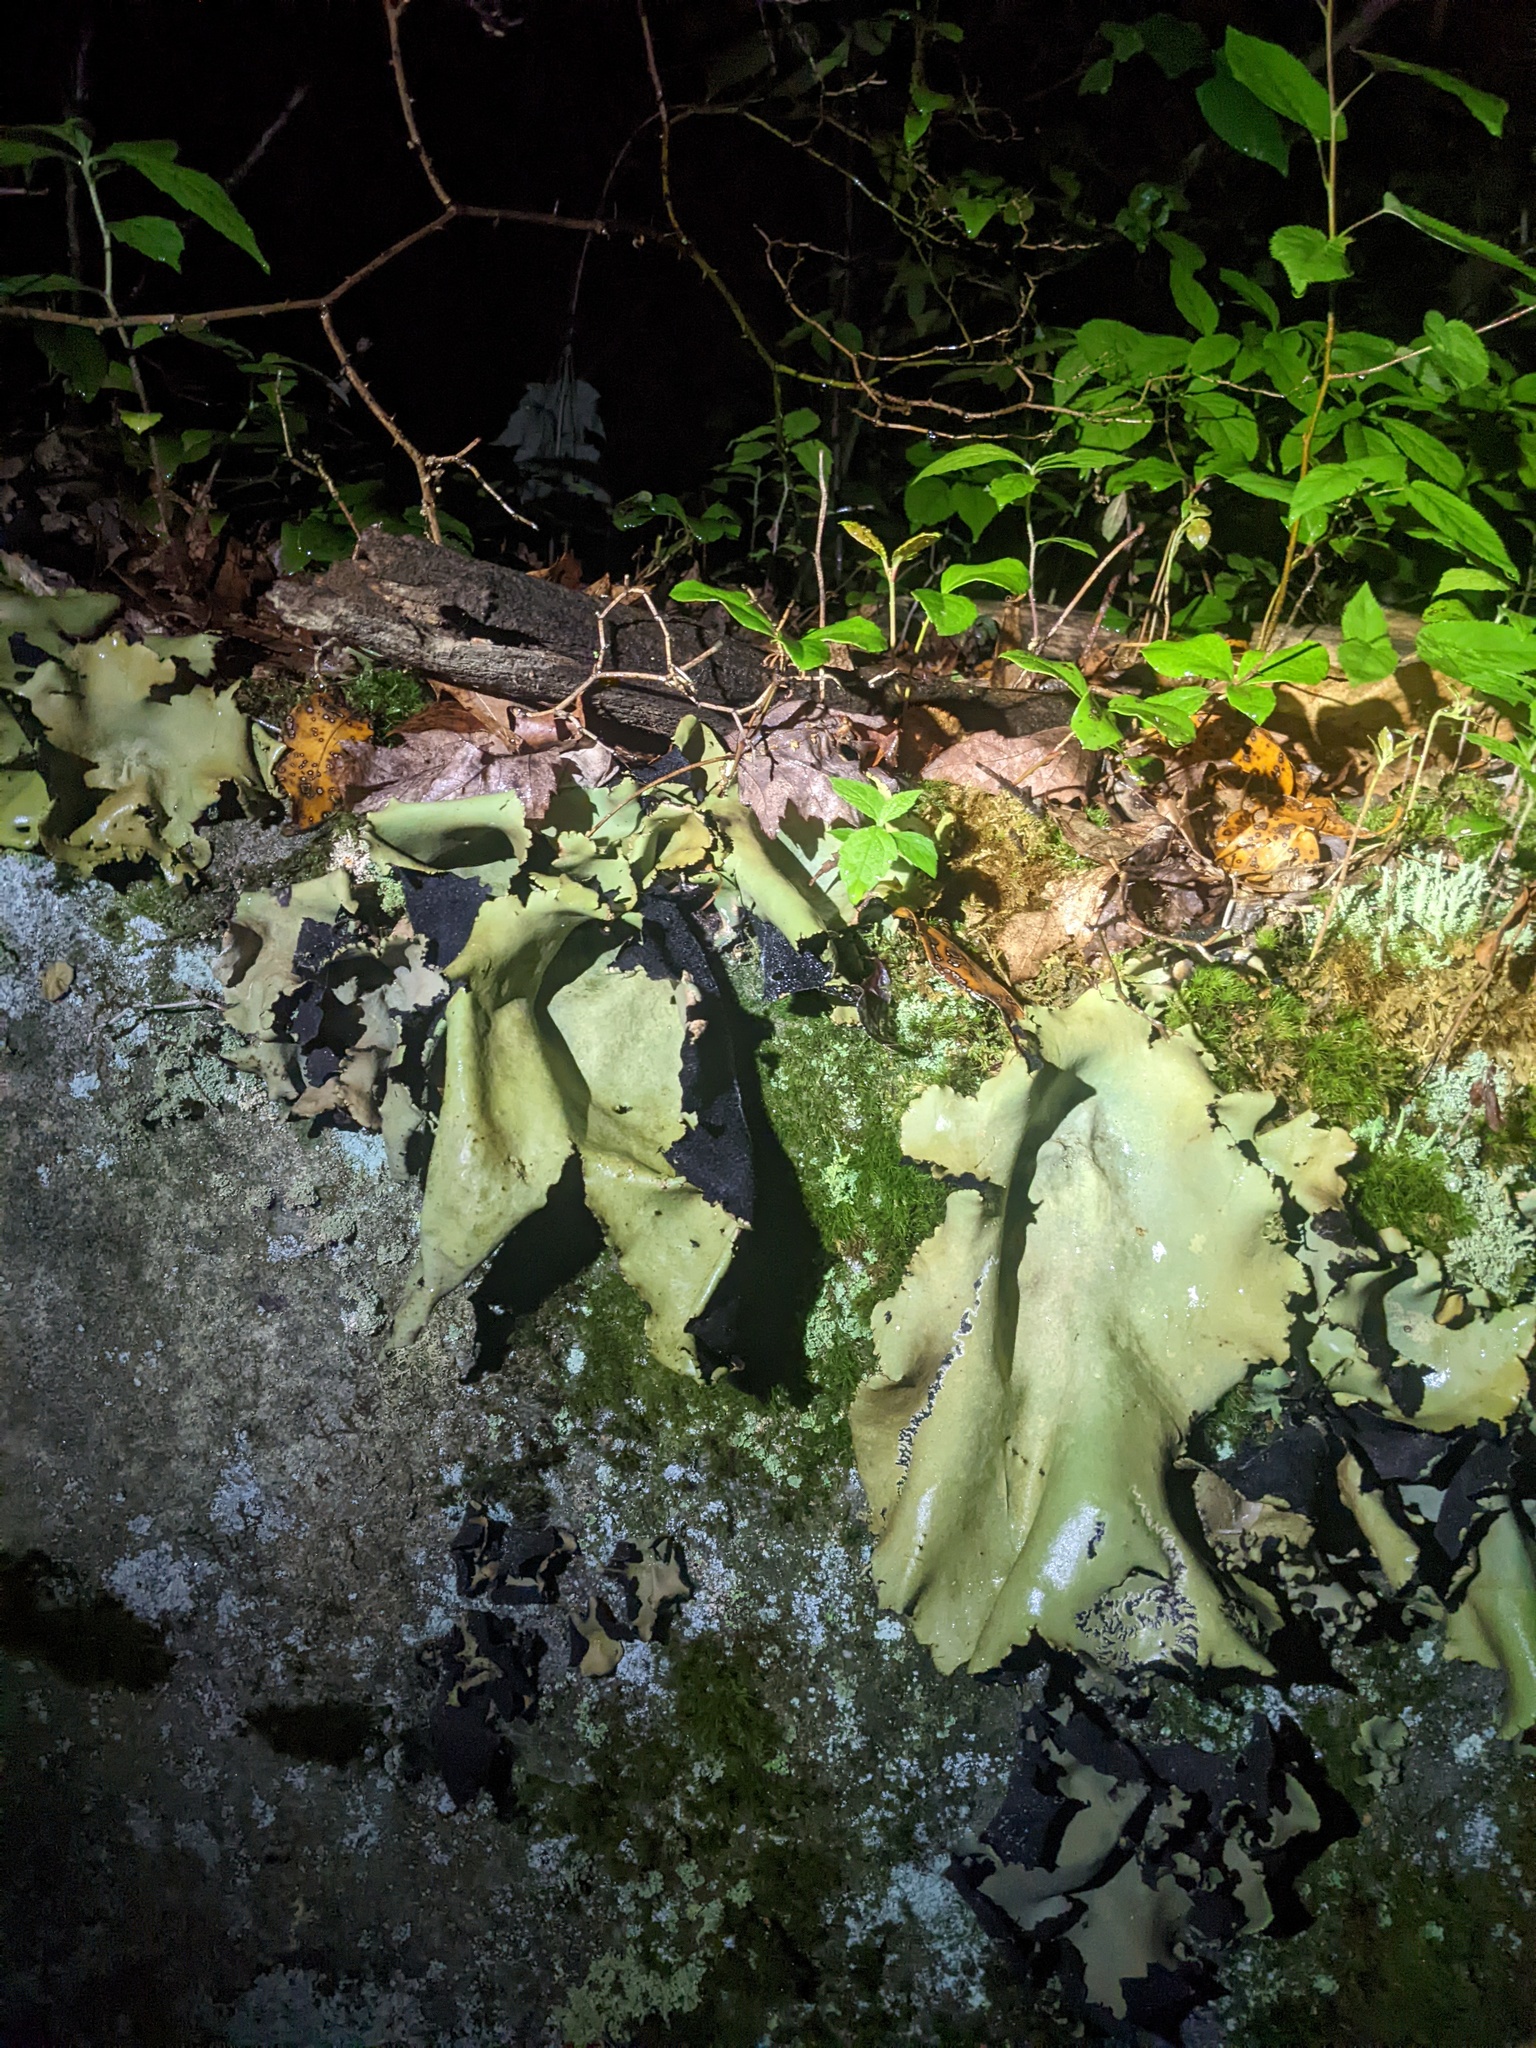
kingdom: Fungi
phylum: Ascomycota
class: Lecanoromycetes
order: Umbilicariales
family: Umbilicariaceae
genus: Umbilicaria
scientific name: Umbilicaria mammulata
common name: Smooth rock tripe
